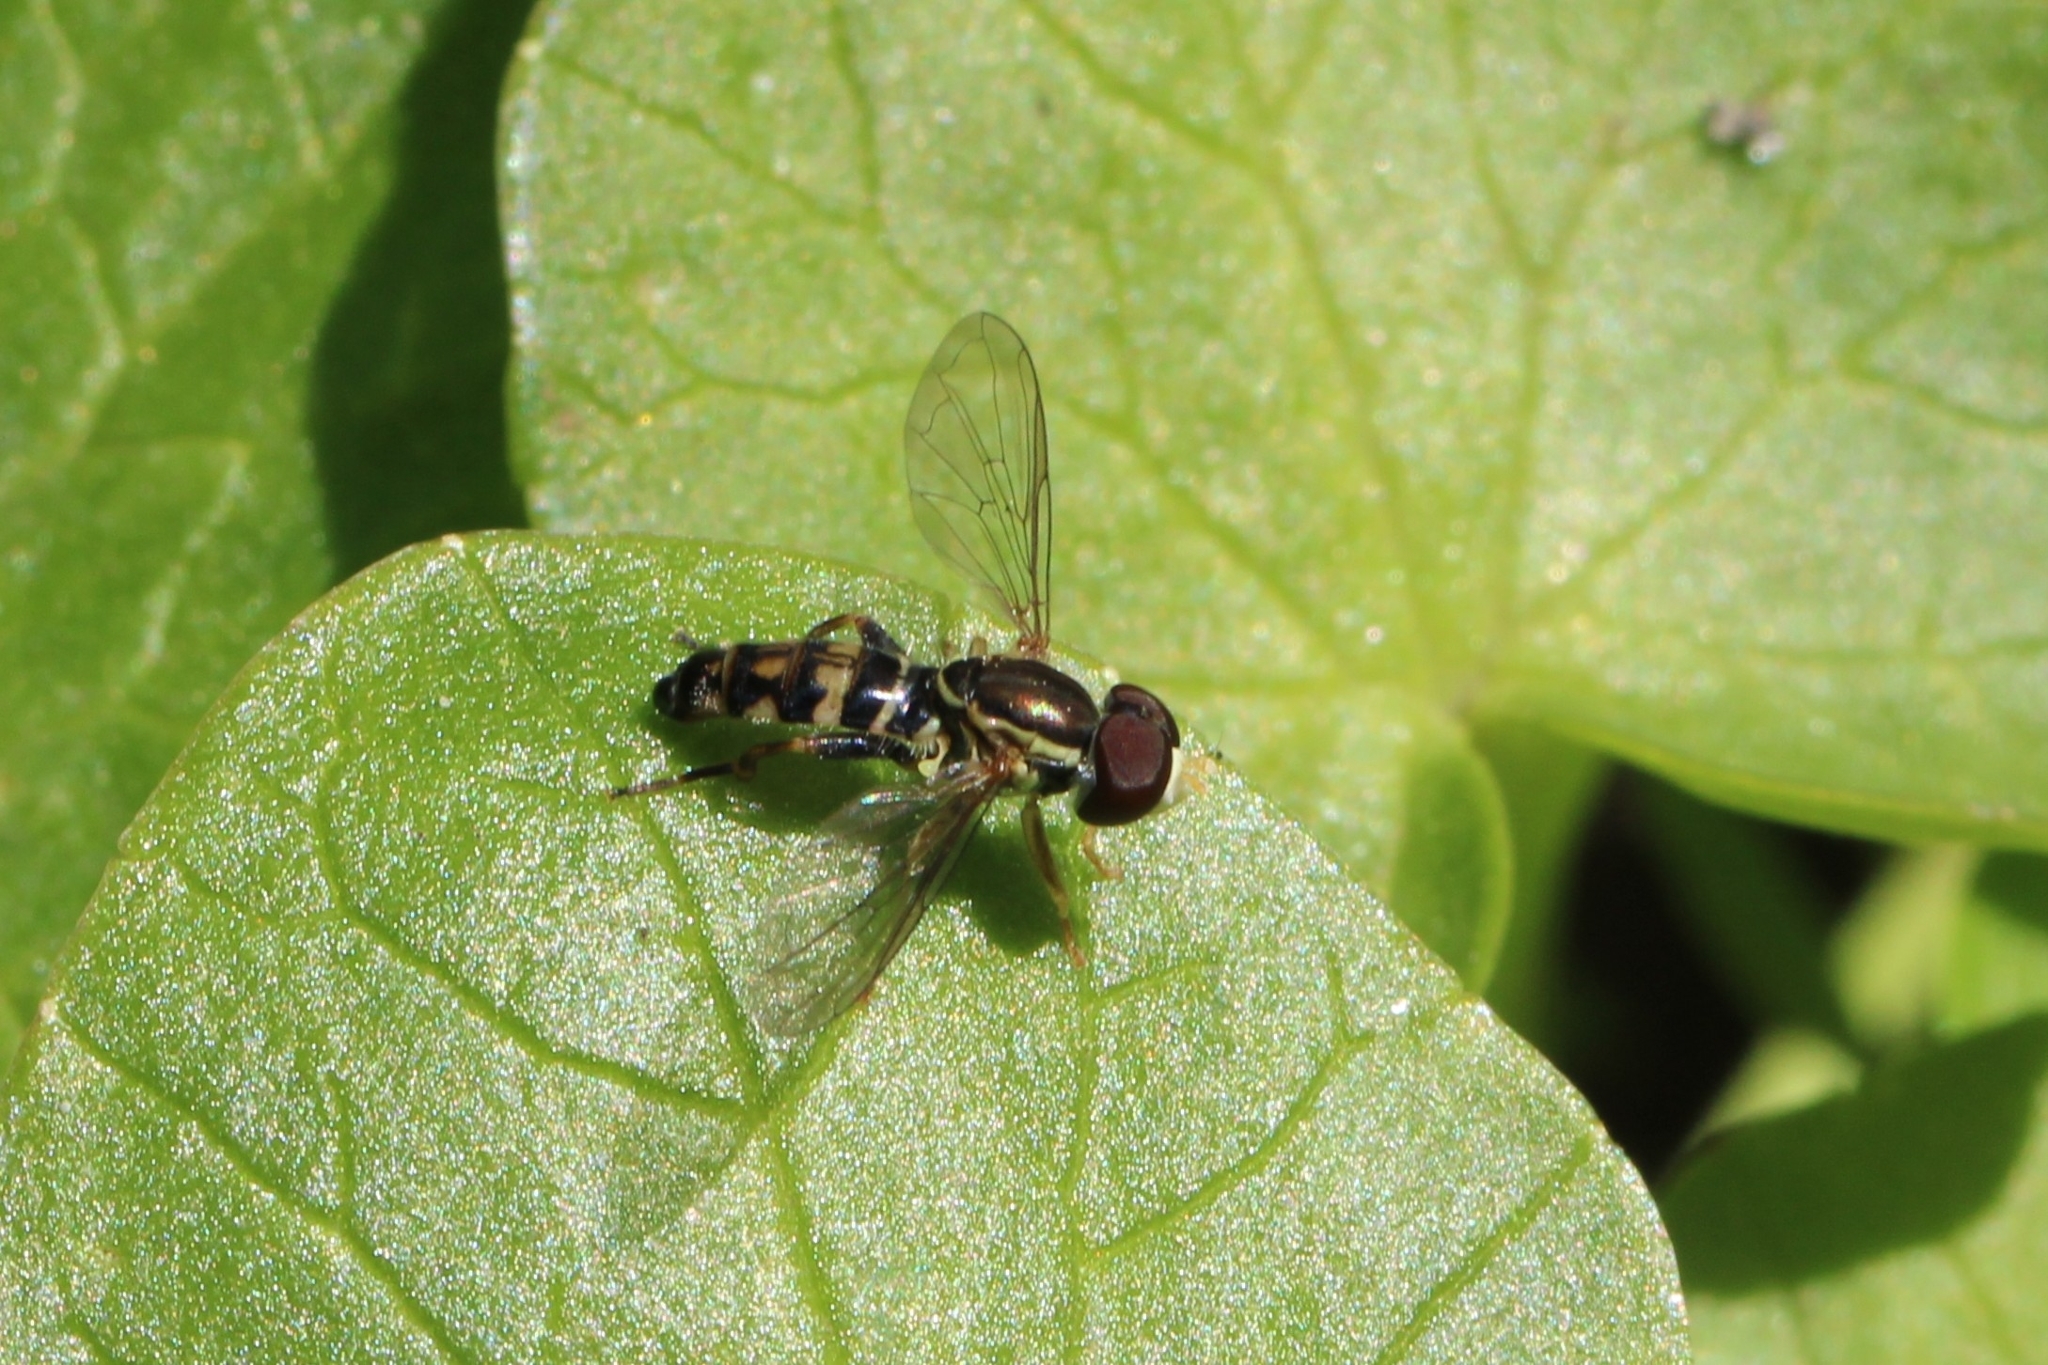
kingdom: Animalia
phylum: Arthropoda
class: Insecta
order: Diptera
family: Syrphidae
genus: Toxomerus
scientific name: Toxomerus geminatus
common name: Eastern calligrapher
